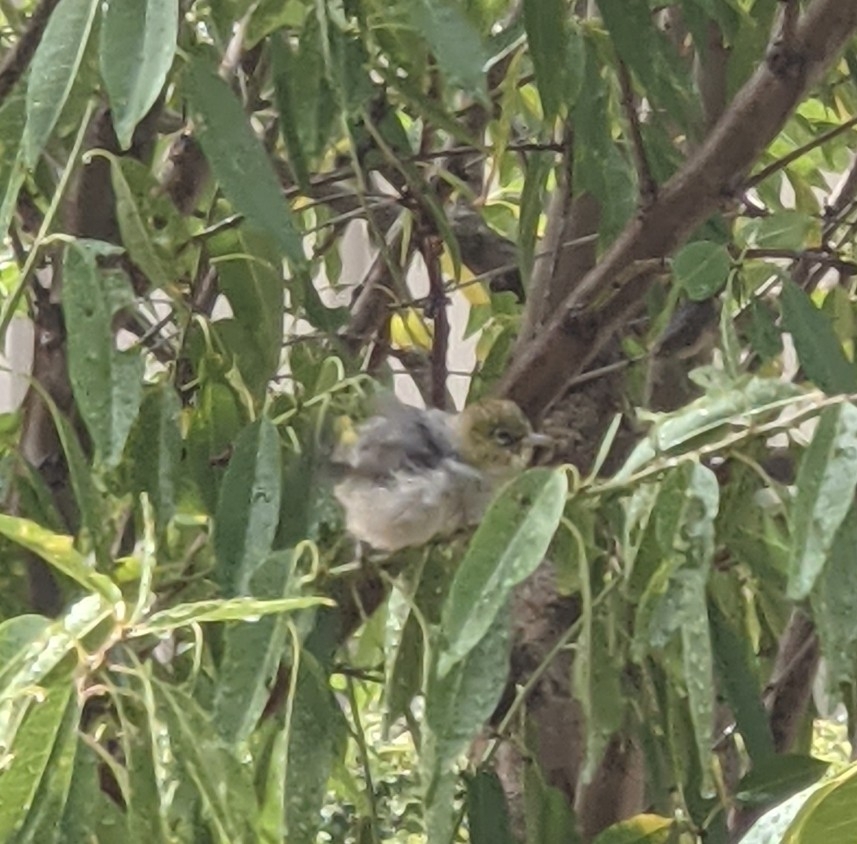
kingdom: Animalia
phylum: Chordata
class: Aves
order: Passeriformes
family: Zosteropidae
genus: Zosterops
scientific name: Zosterops lateralis
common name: Silvereye
